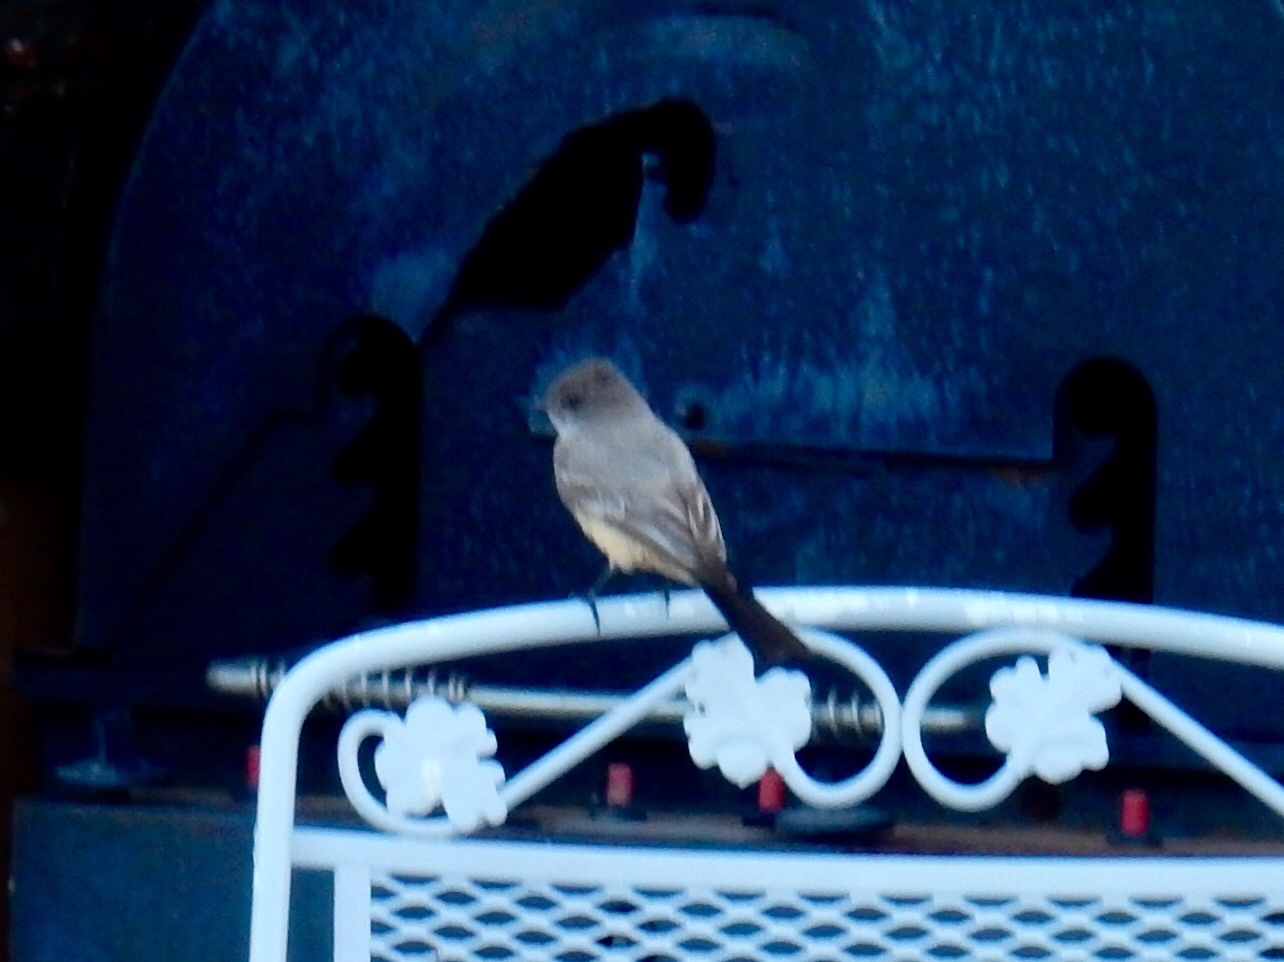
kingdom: Animalia
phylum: Chordata
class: Aves
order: Passeriformes
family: Tyrannidae
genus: Sayornis
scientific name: Sayornis saya
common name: Say's phoebe
